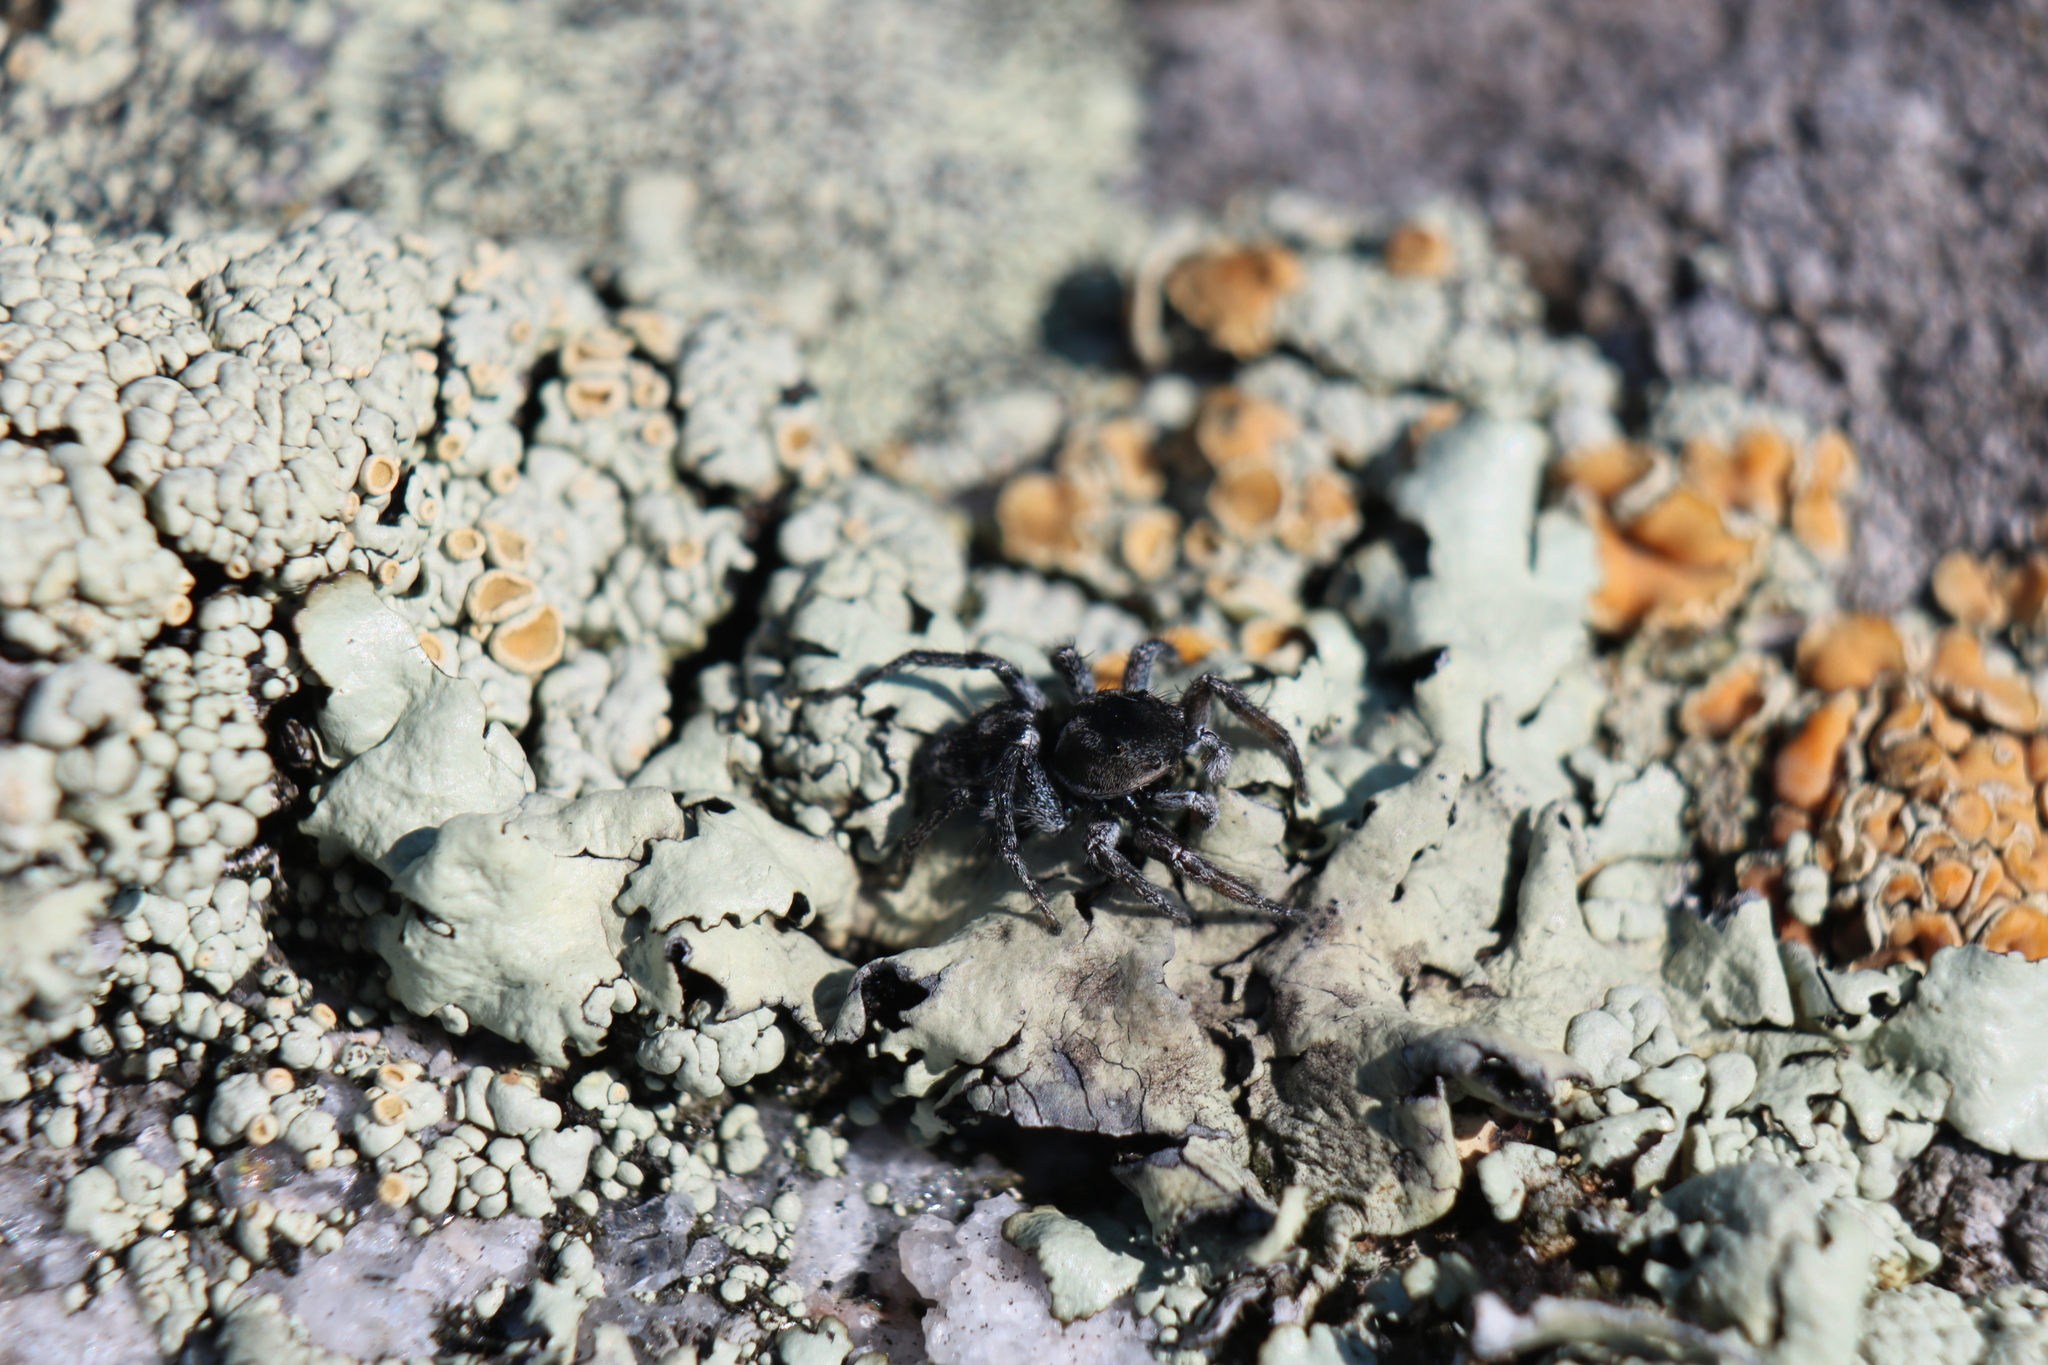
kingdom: Animalia
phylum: Arthropoda
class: Arachnida
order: Araneae
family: Salticidae
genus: Habronattus
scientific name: Habronattus borealis
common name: Boreal paradise spider
